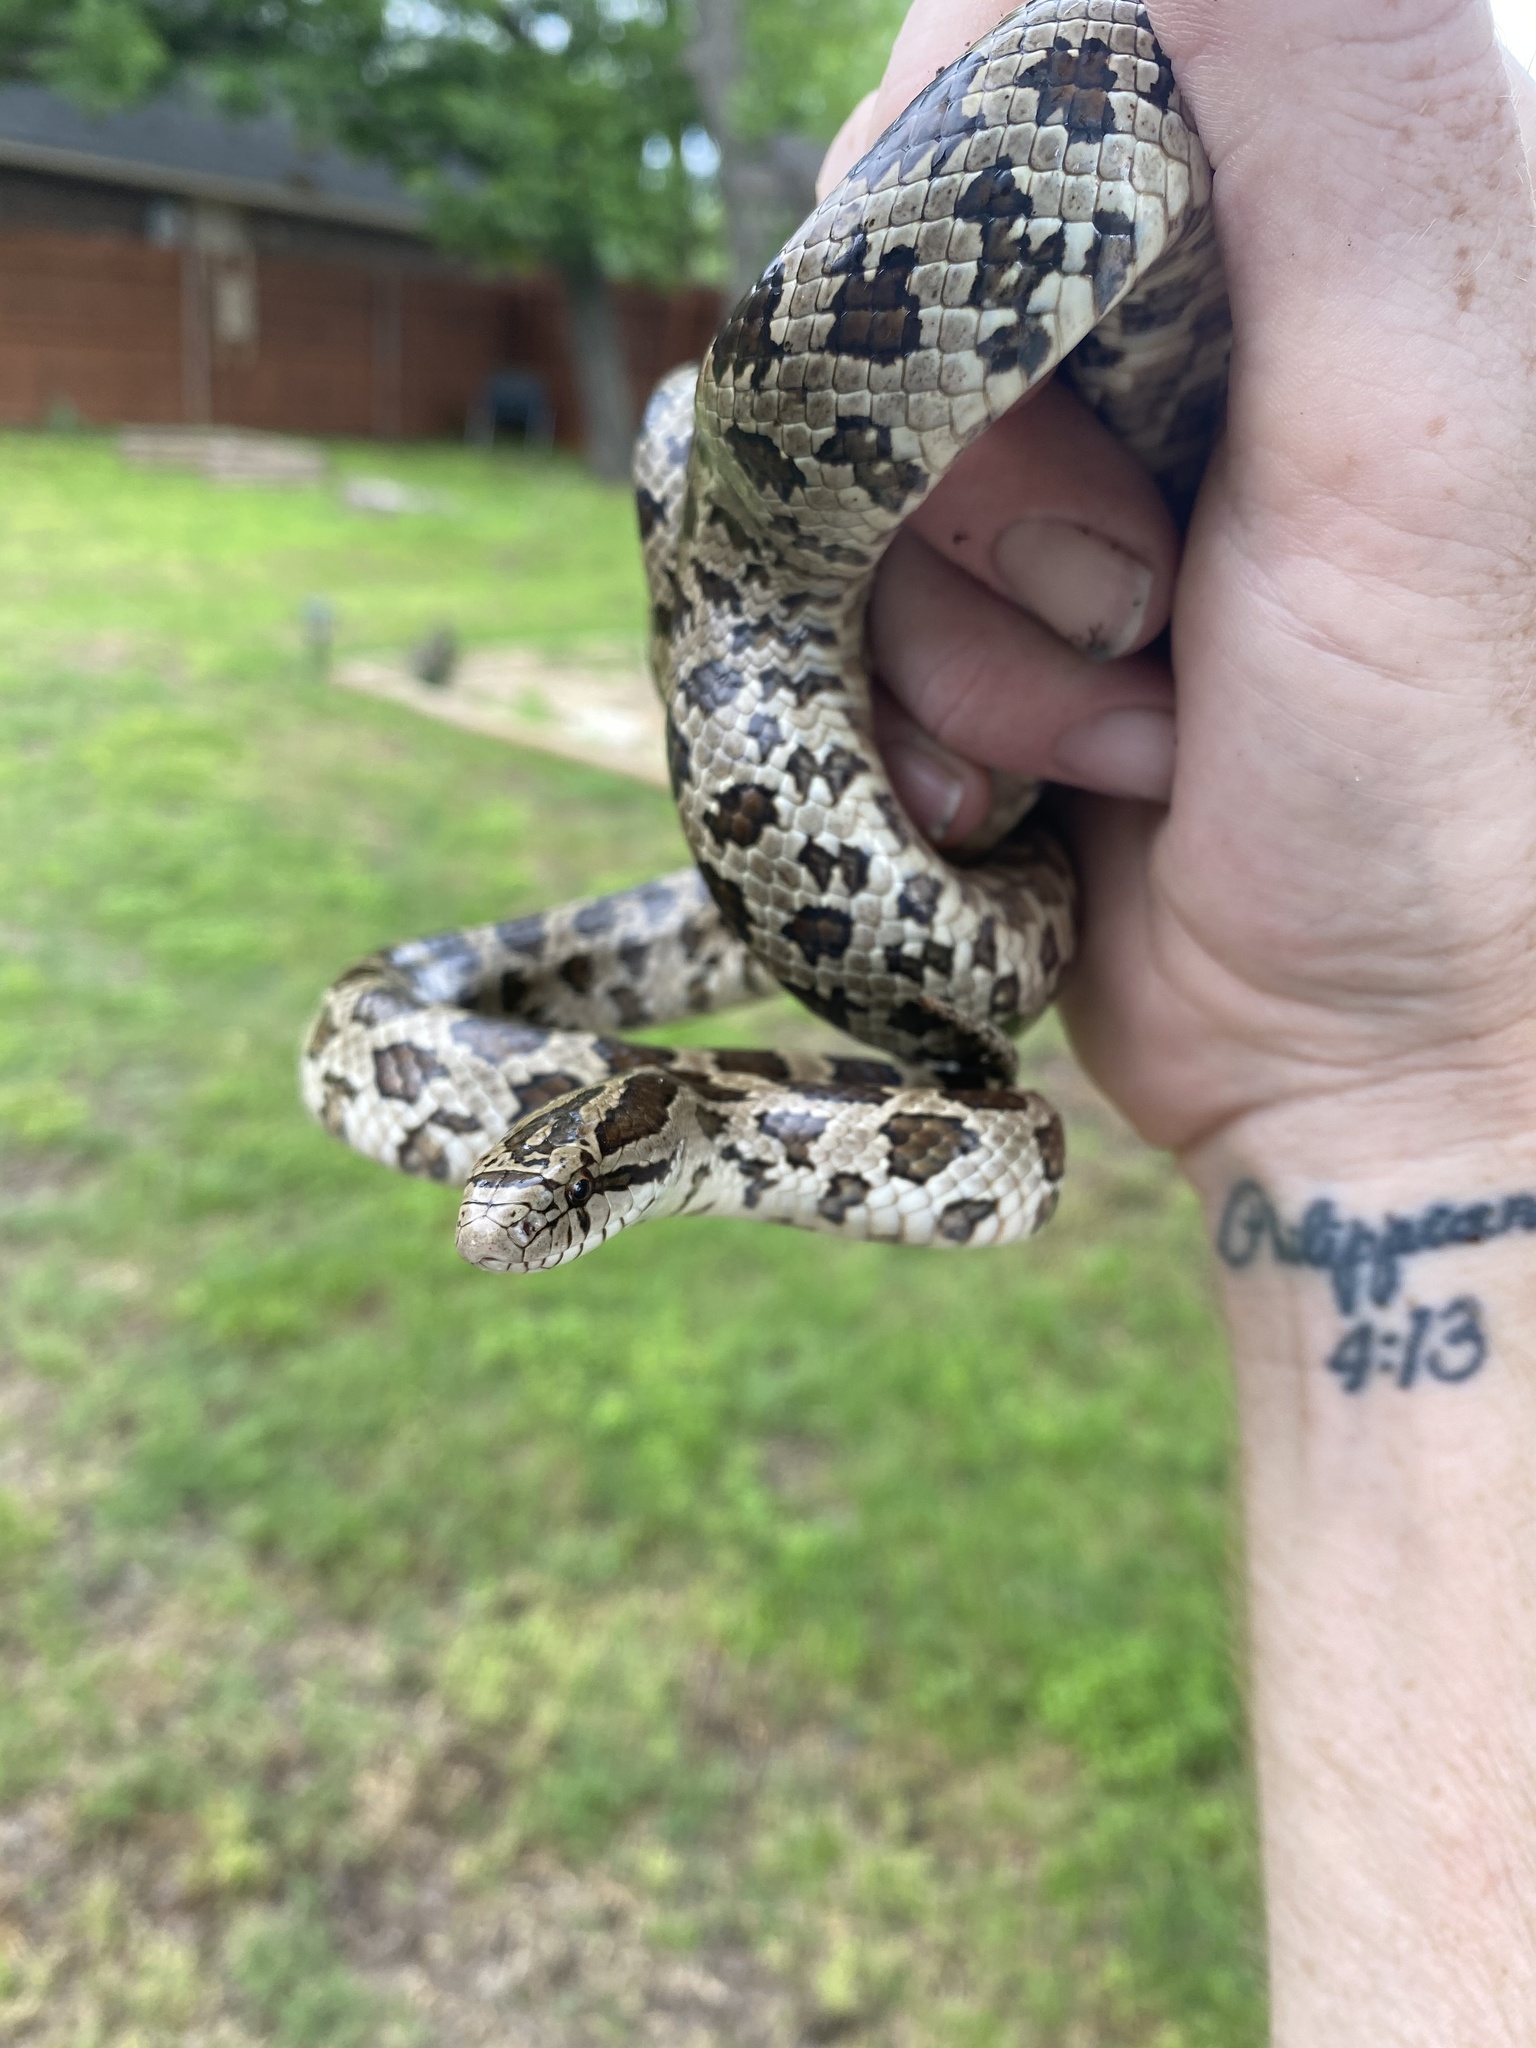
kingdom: Animalia
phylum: Chordata
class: Squamata
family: Colubridae
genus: Lampropeltis
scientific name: Lampropeltis calligaster
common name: Prairie kingsnake
